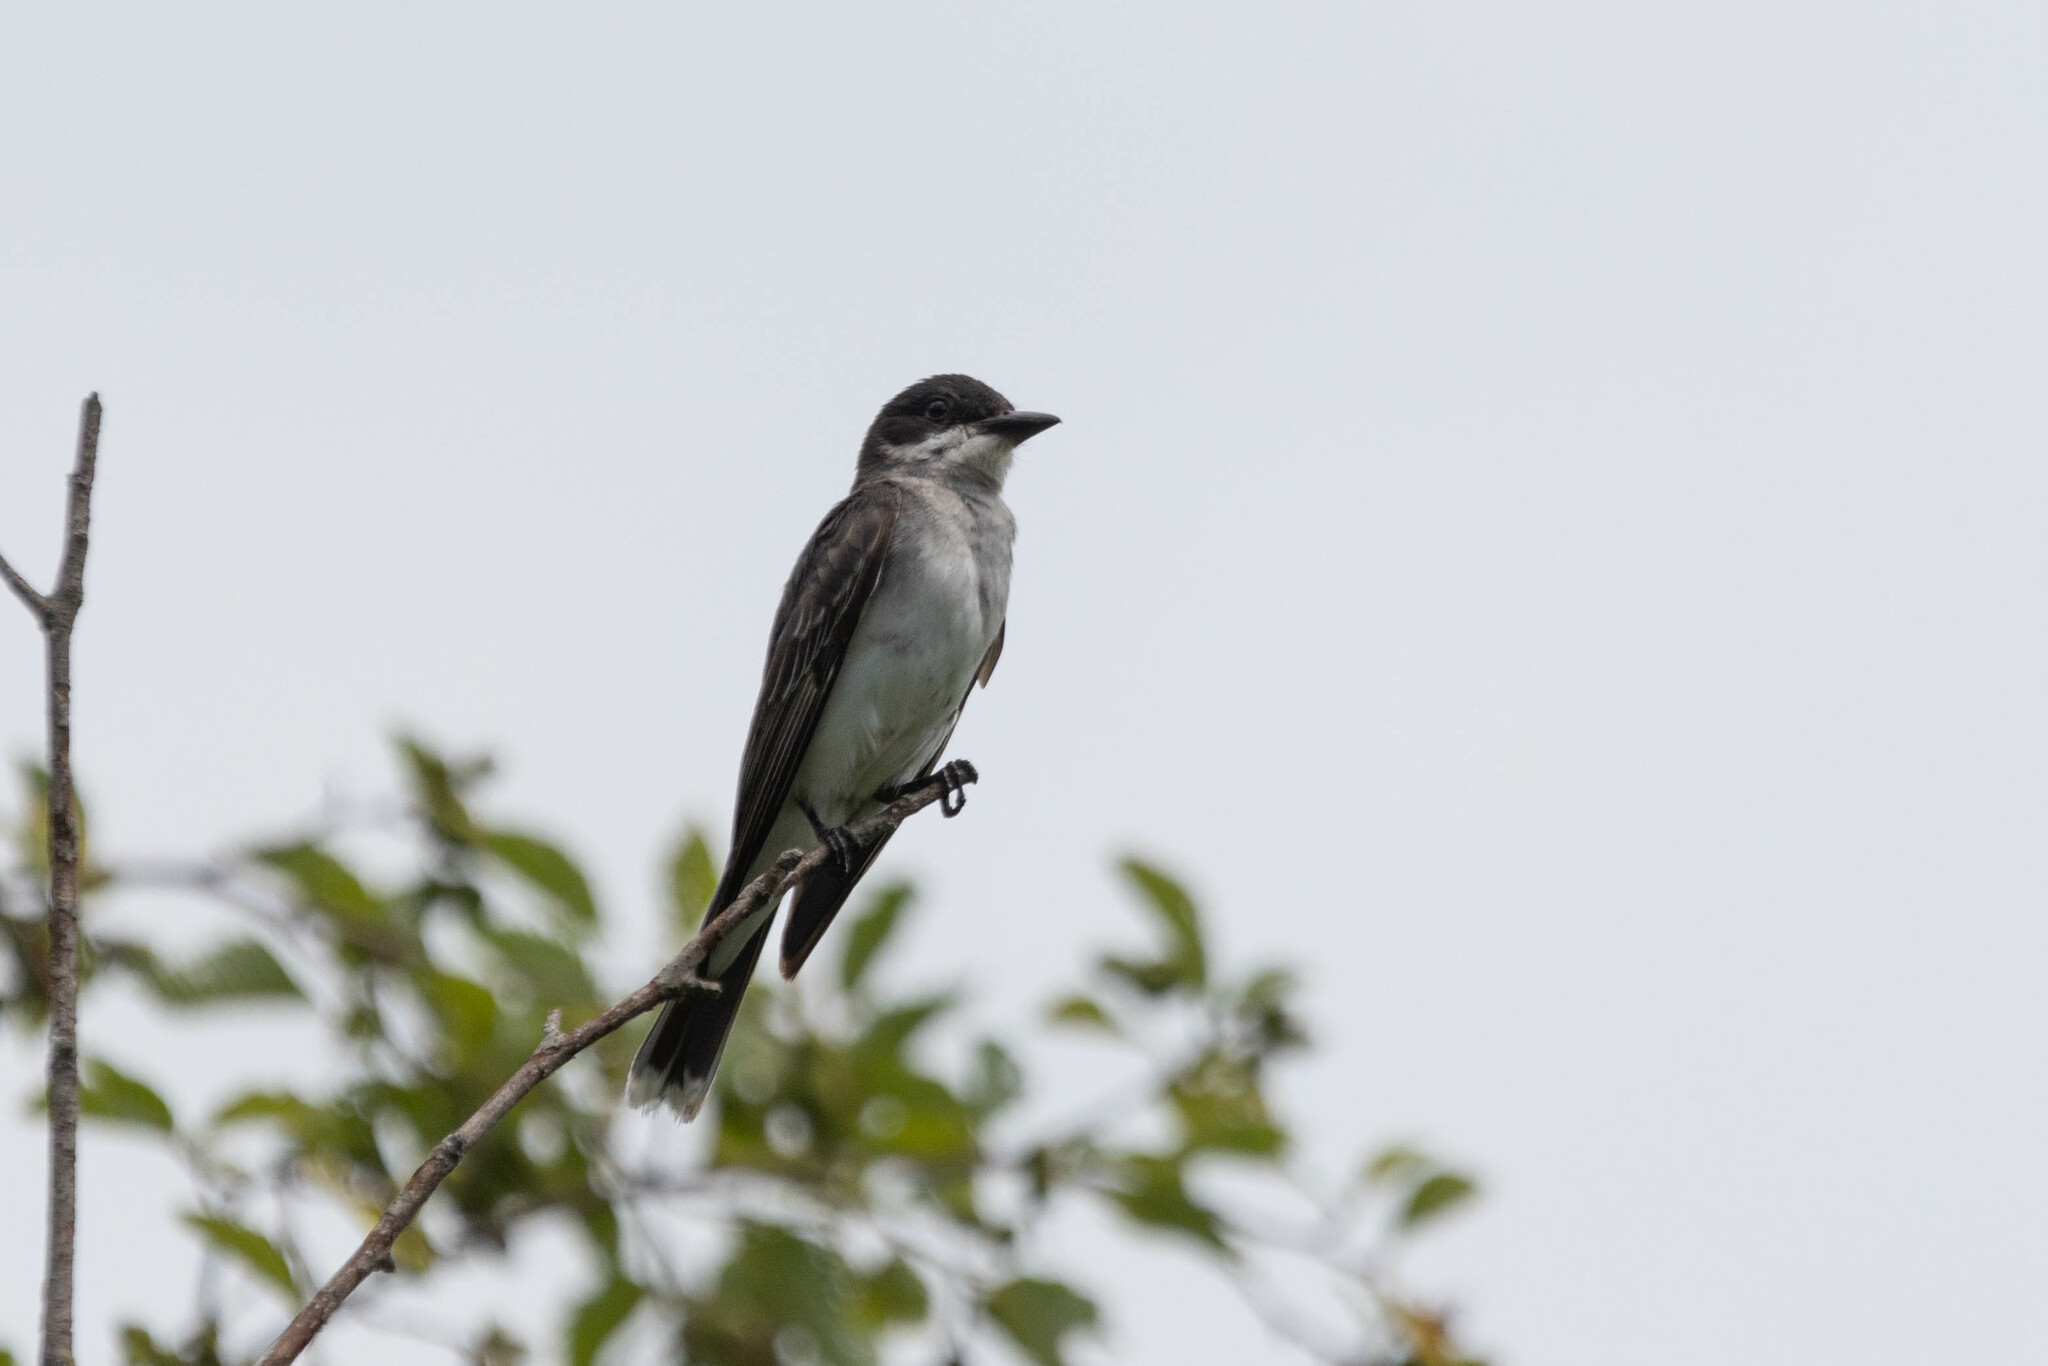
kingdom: Animalia
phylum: Chordata
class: Aves
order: Passeriformes
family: Tyrannidae
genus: Tyrannus
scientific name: Tyrannus tyrannus
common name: Eastern kingbird
